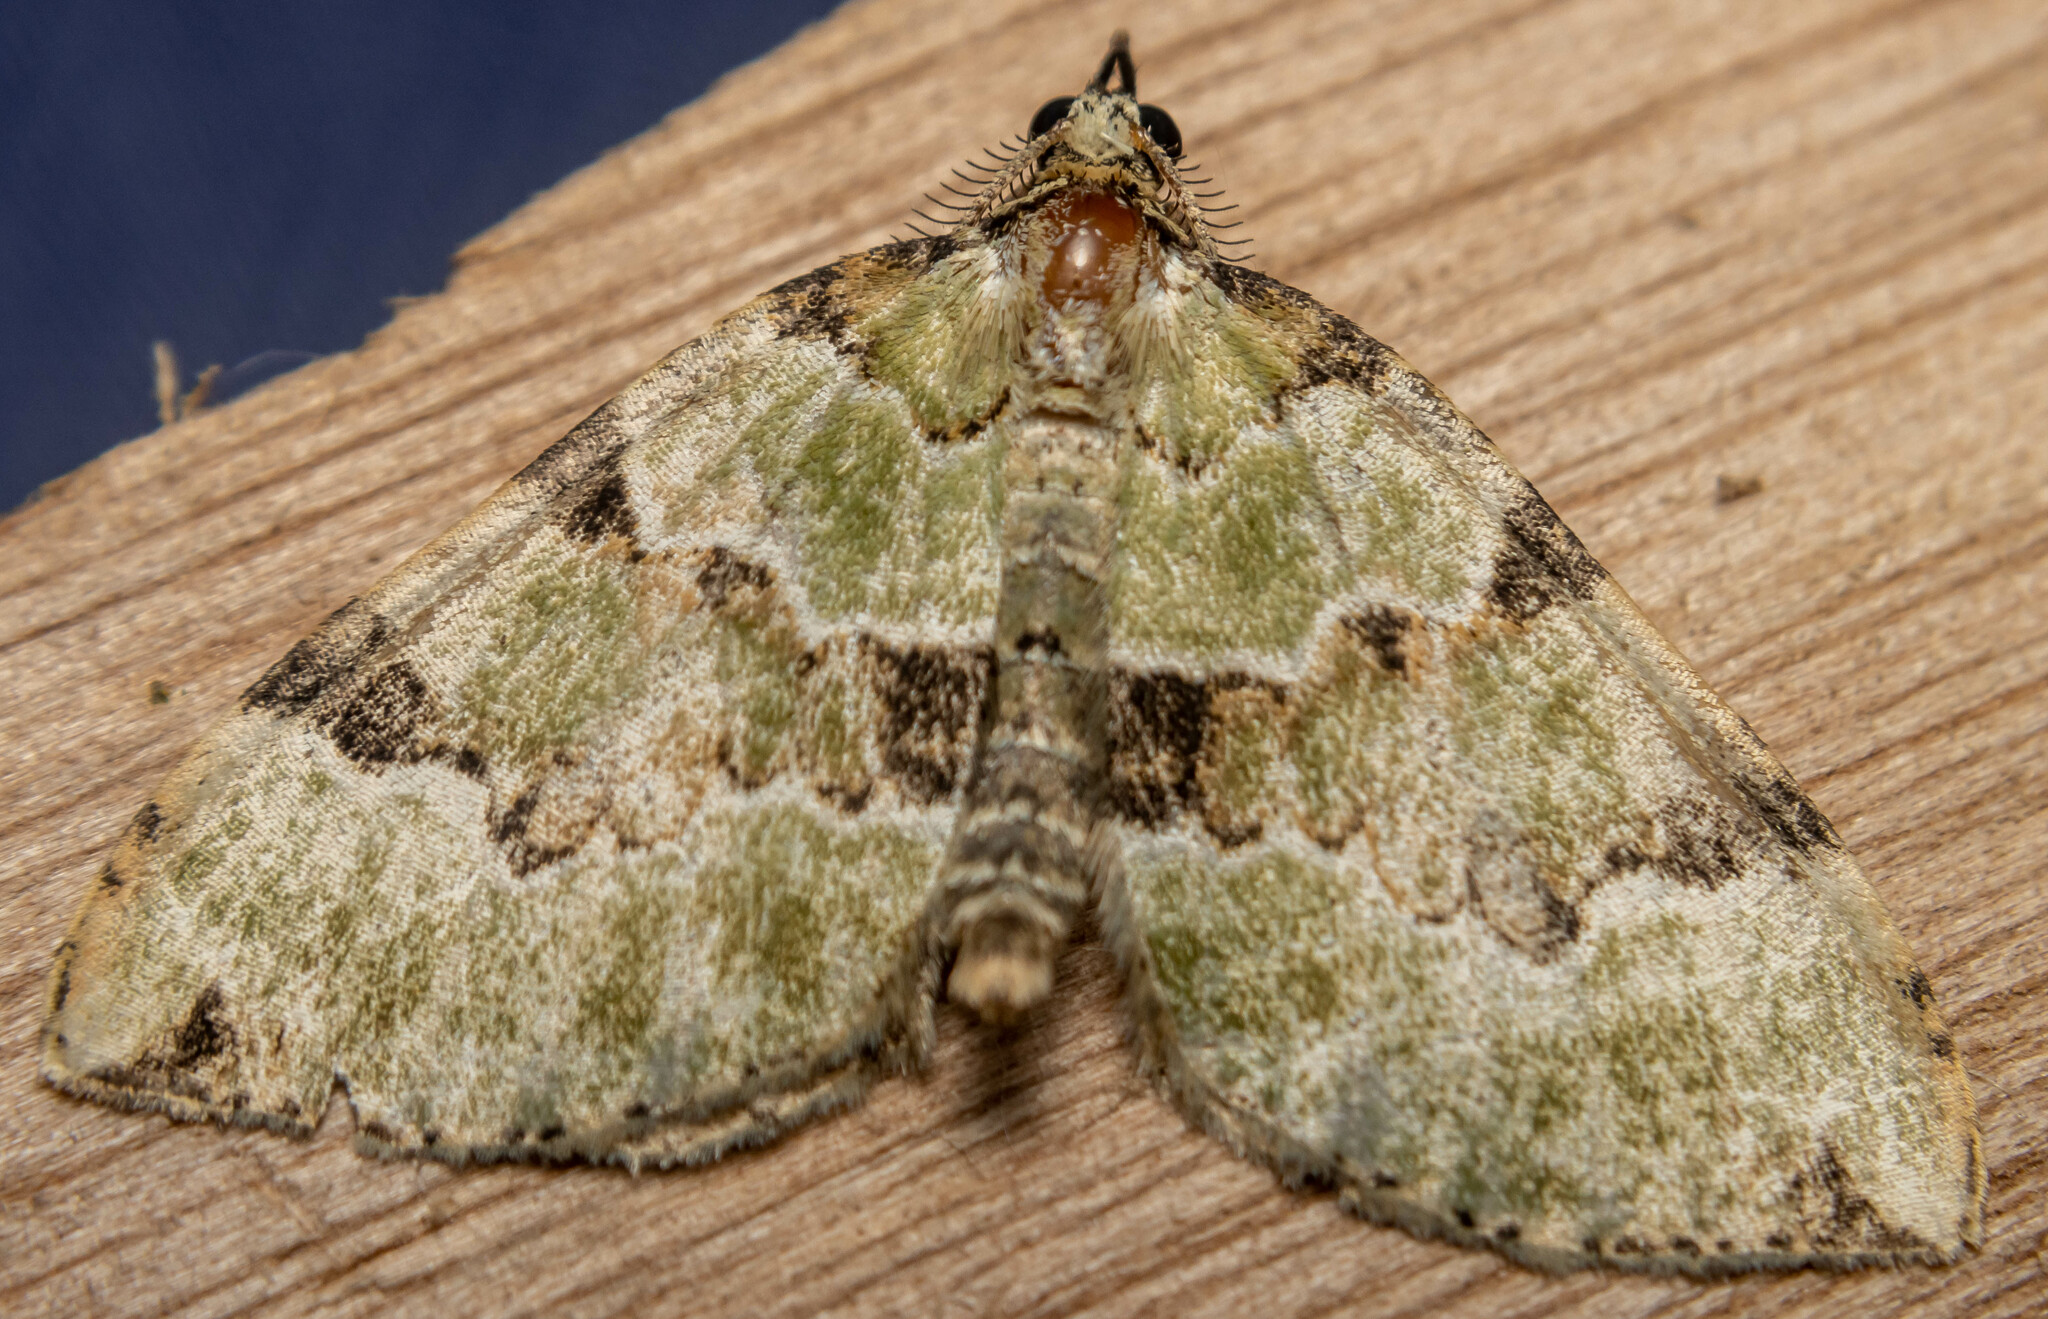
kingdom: Animalia
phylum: Arthropoda
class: Insecta
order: Lepidoptera
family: Geometridae
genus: Colostygia
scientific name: Colostygia pectinataria
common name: Green carpet
